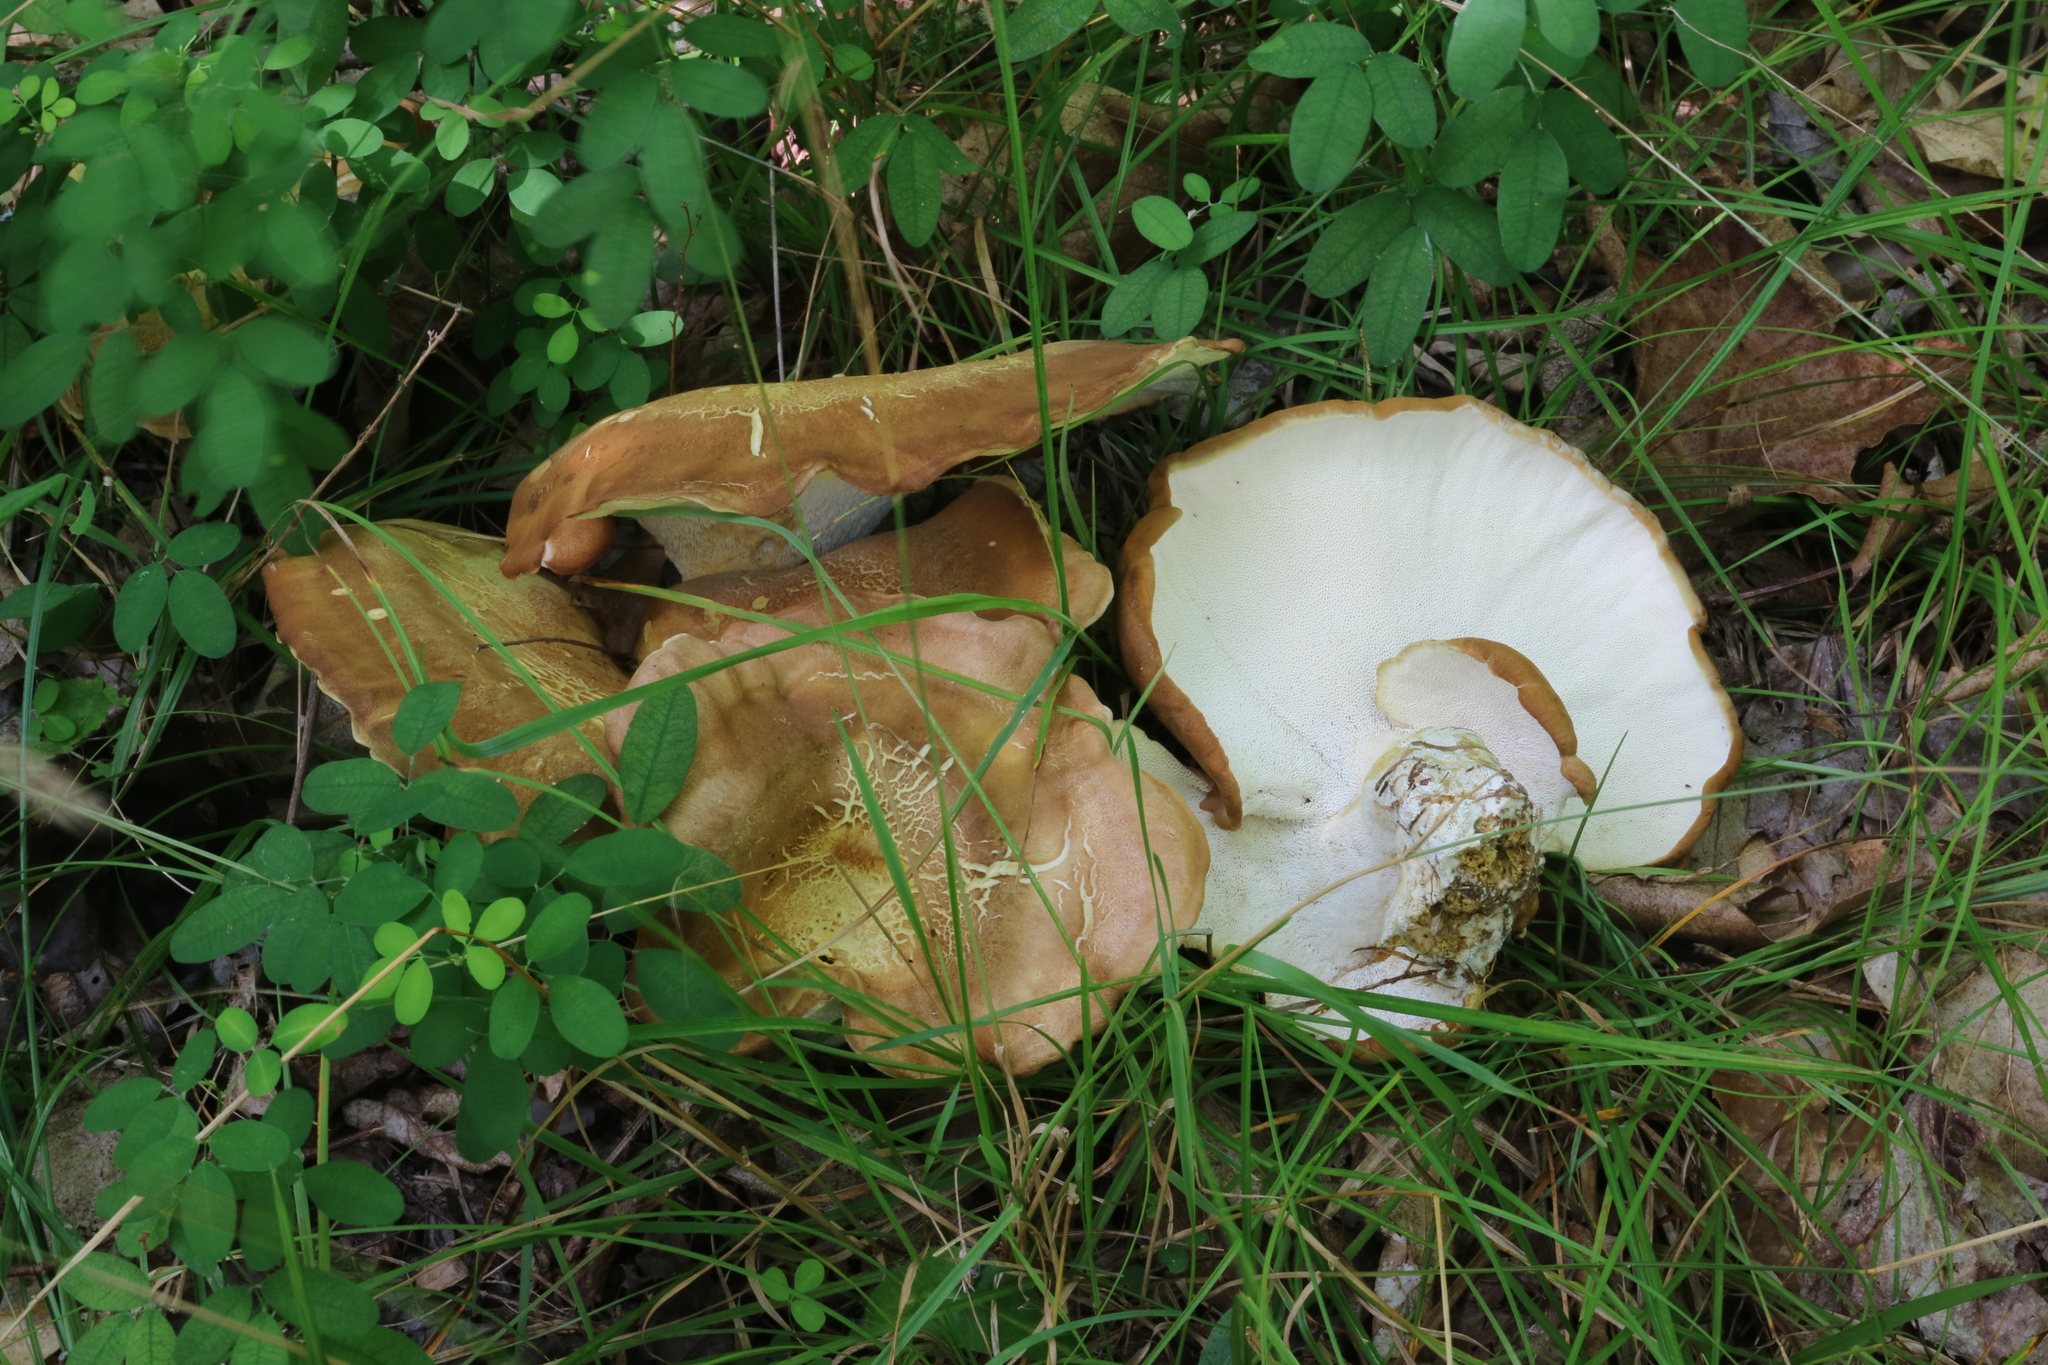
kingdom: Fungi
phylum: Basidiomycota
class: Agaricomycetes
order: Russulales
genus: Laeticutis
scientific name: Laeticutis cristata
